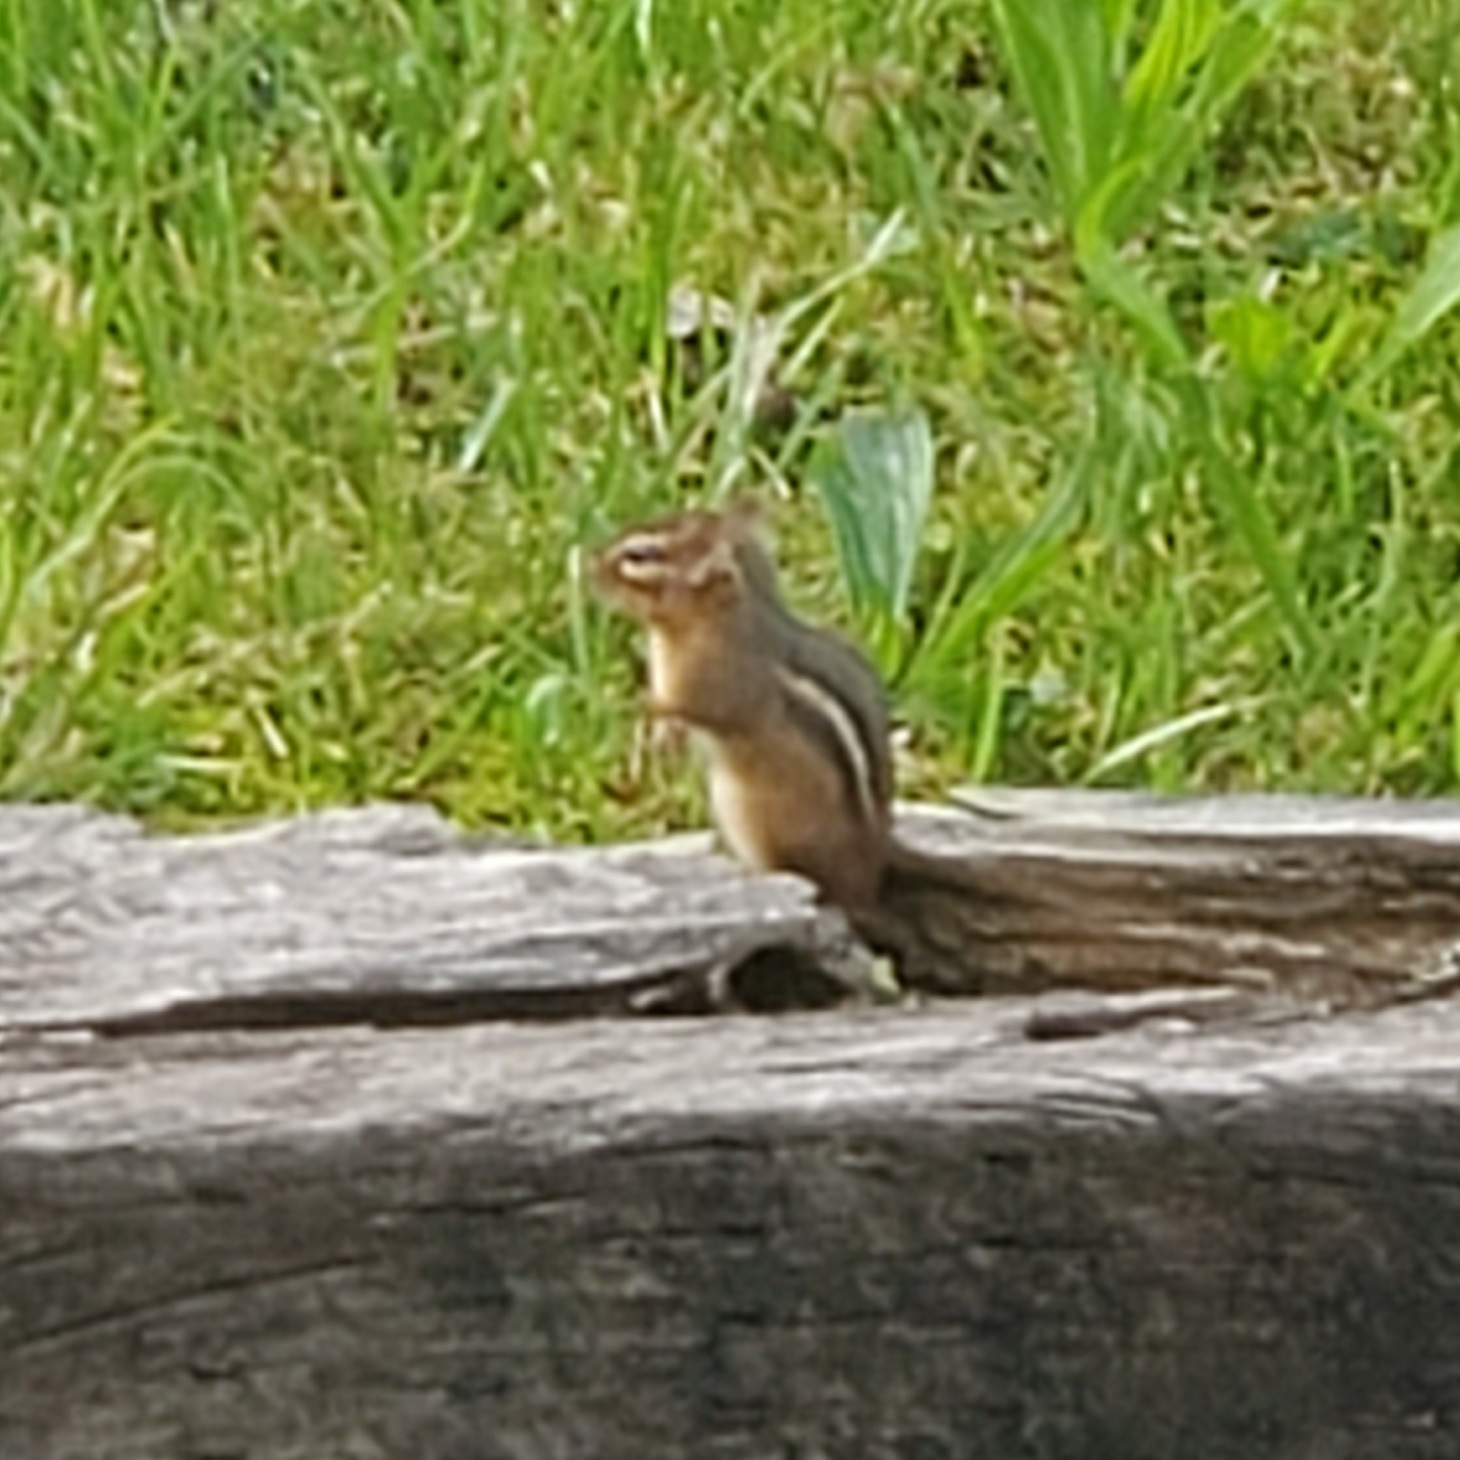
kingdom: Animalia
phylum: Chordata
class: Mammalia
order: Rodentia
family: Sciuridae
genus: Tamias
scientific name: Tamias striatus
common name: Eastern chipmunk
